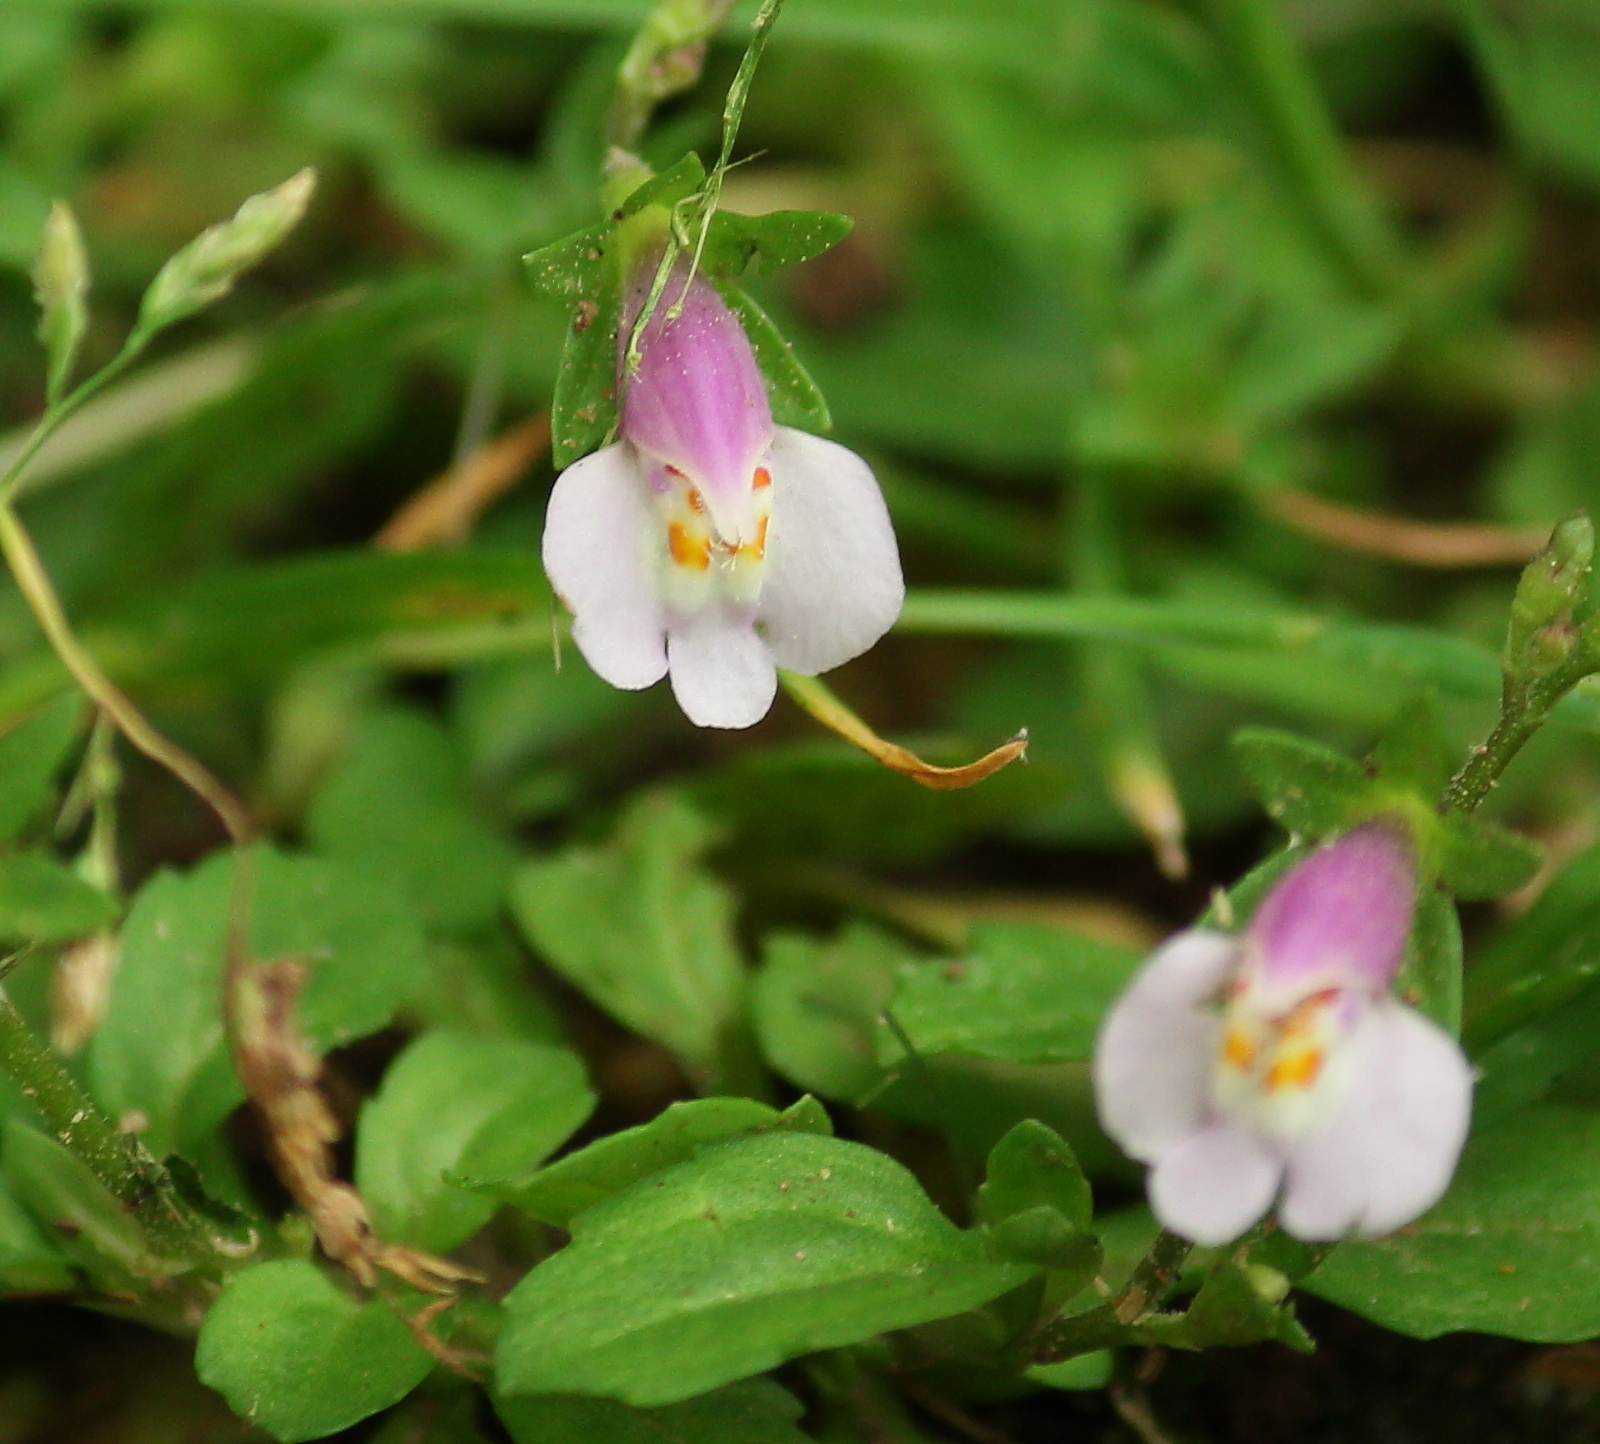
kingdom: Plantae
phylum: Tracheophyta
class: Magnoliopsida
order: Lamiales
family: Mazaceae
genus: Mazus
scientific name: Mazus pumilus
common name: Japanese mazus
